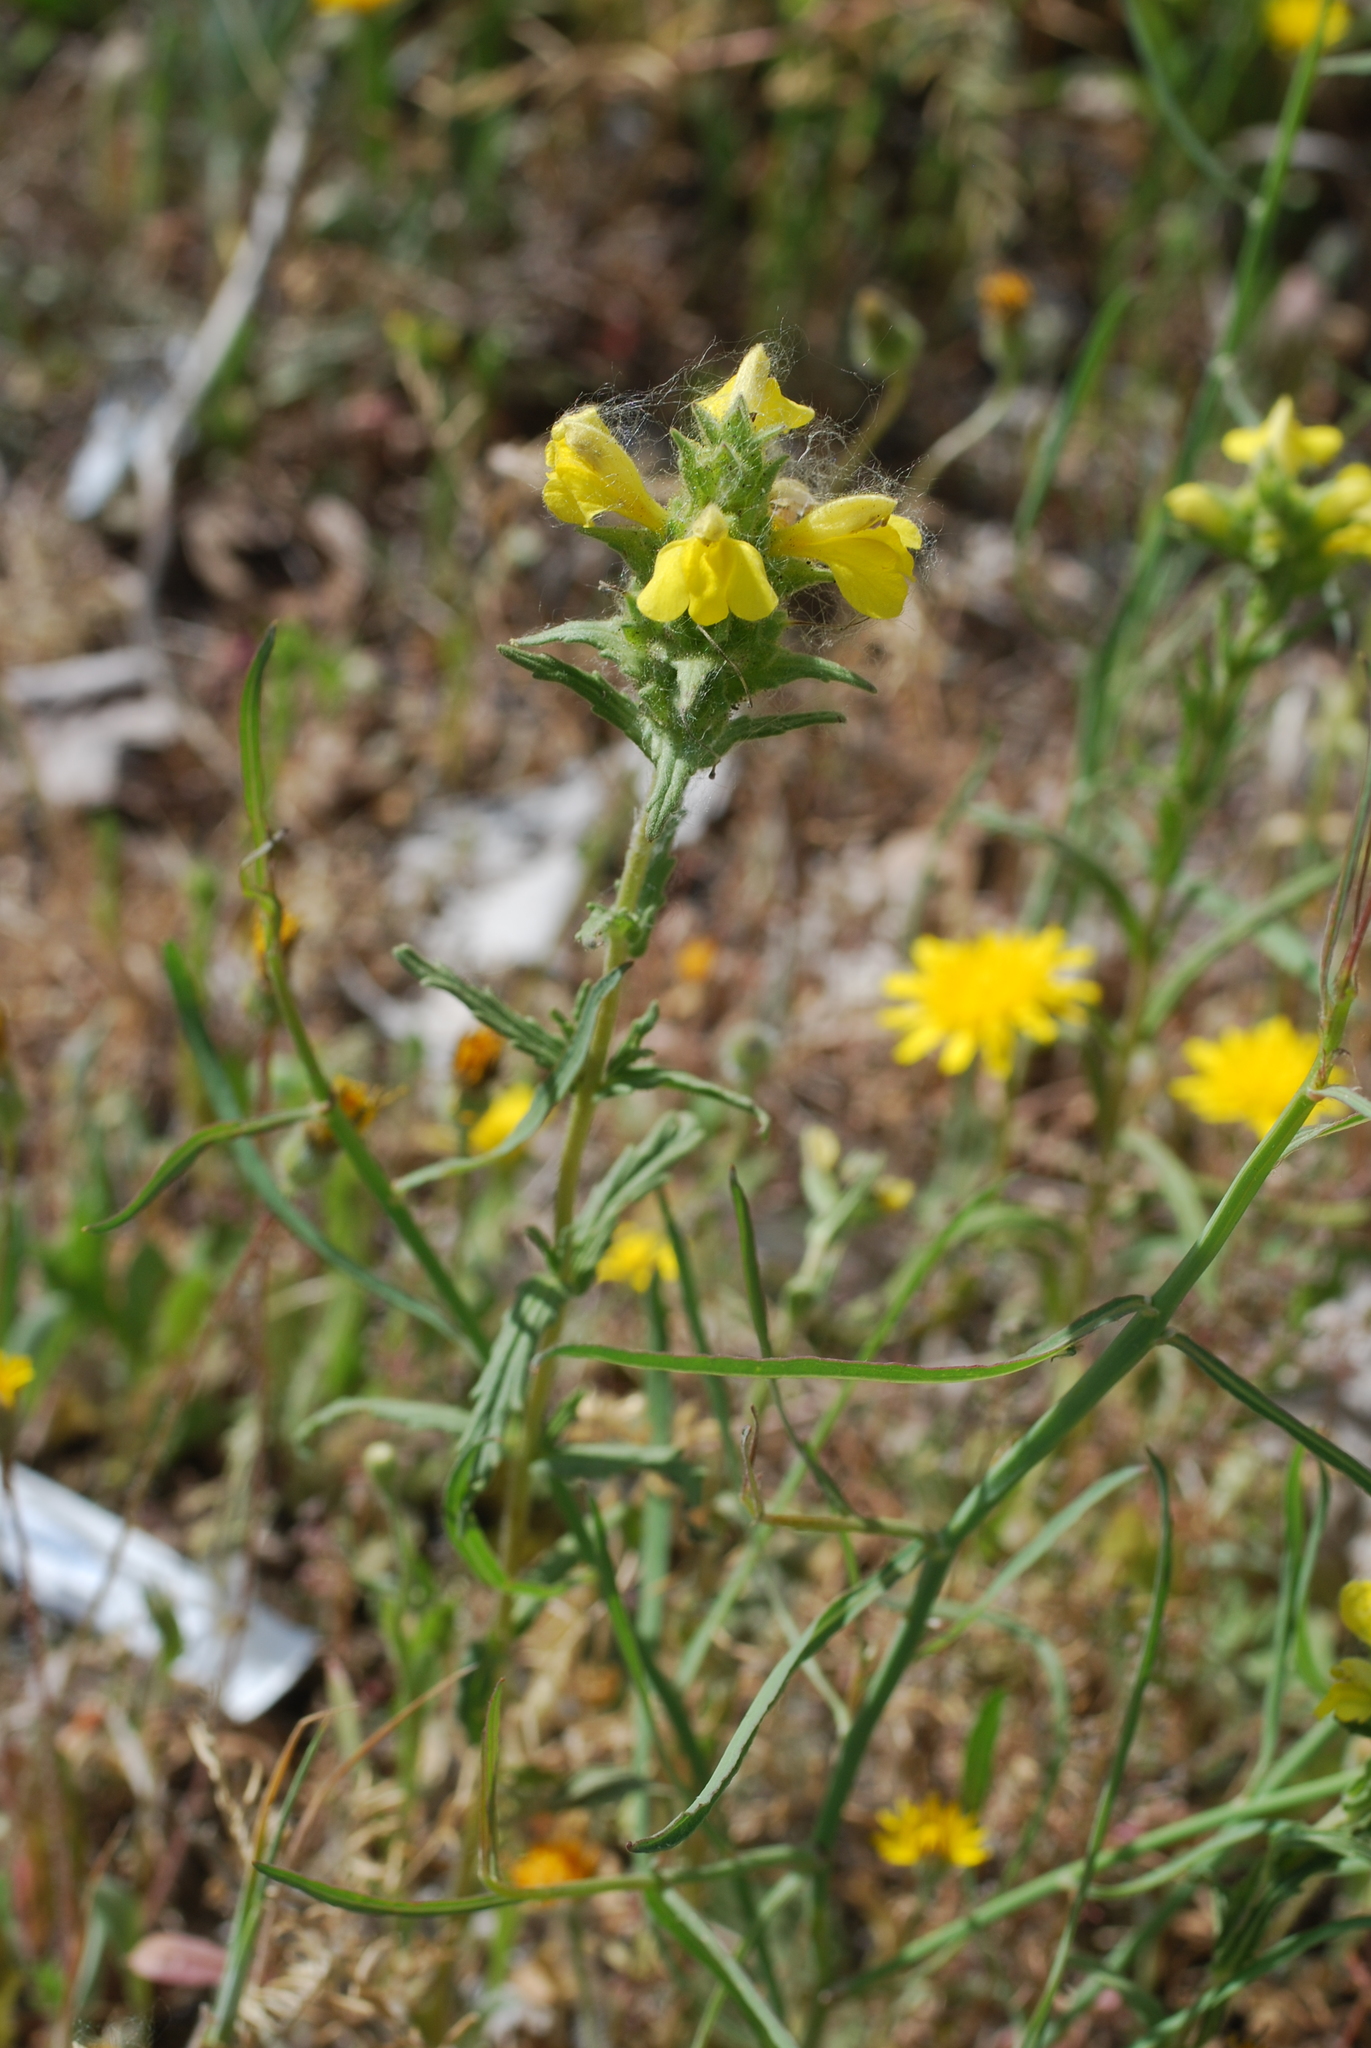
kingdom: Plantae
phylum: Tracheophyta
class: Magnoliopsida
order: Lamiales
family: Orobanchaceae
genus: Bellardia
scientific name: Bellardia trixago
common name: Mediterranean lineseed
